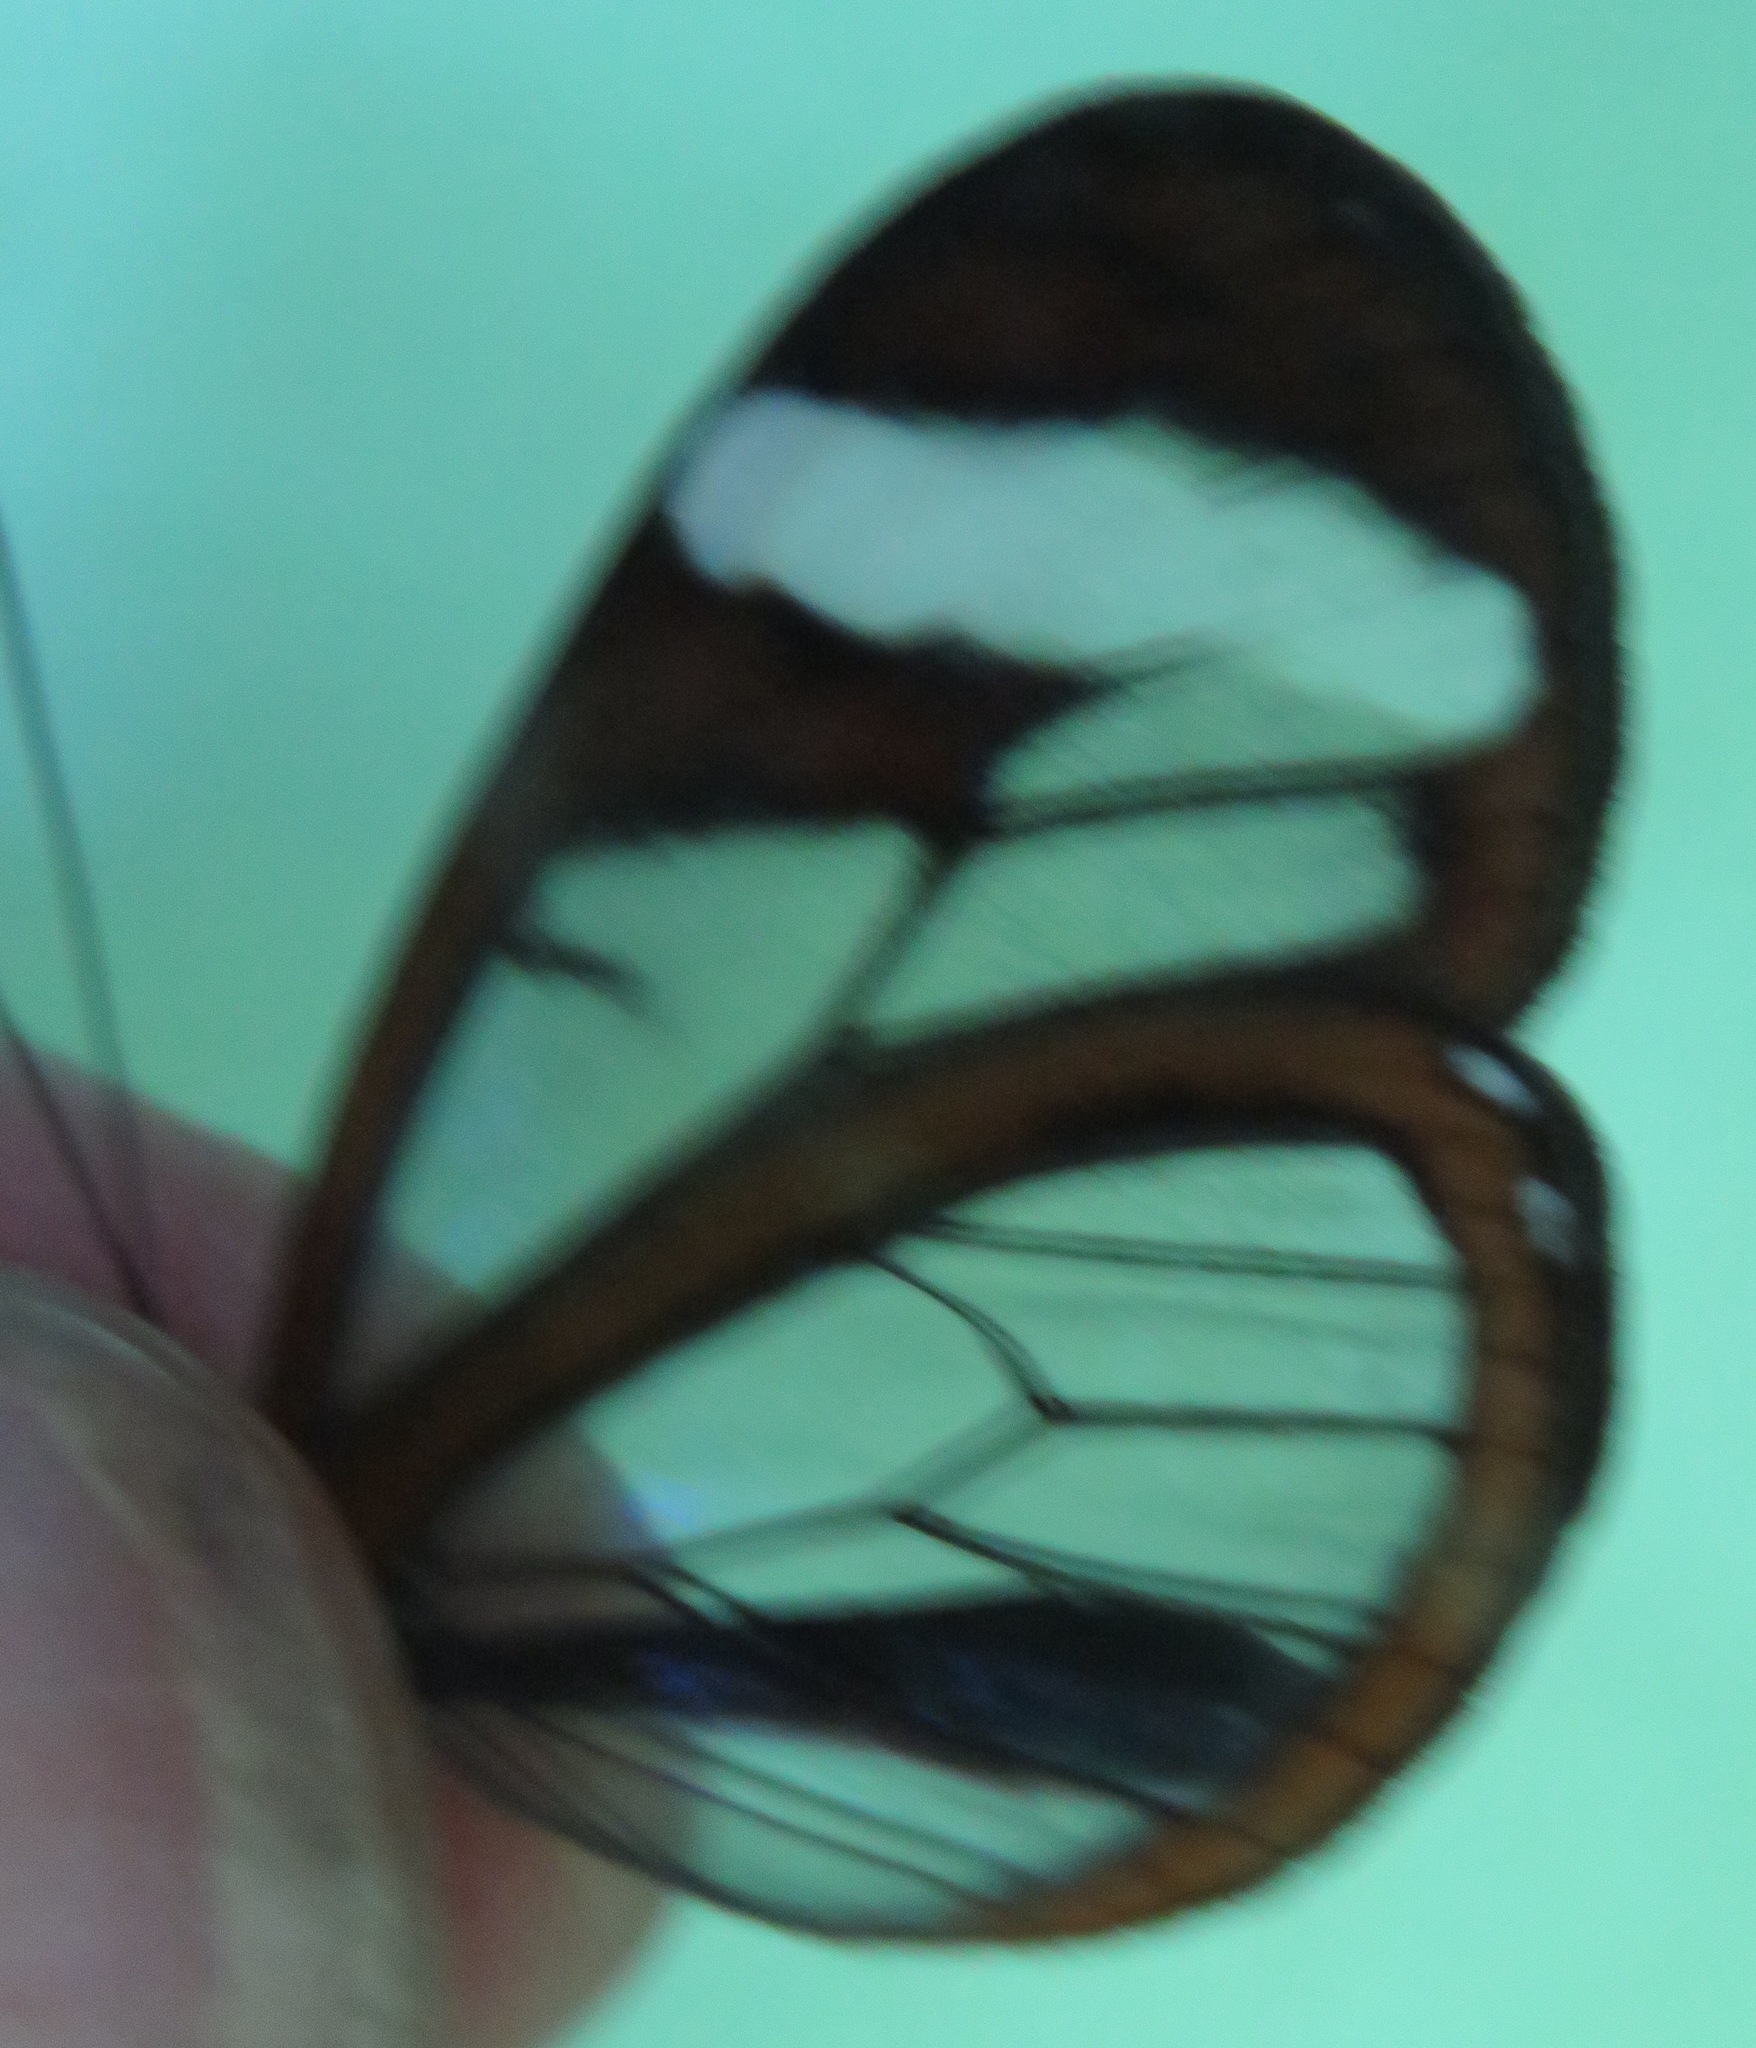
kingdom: Animalia
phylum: Arthropoda
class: Insecta
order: Lepidoptera
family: Nymphalidae
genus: Oleria
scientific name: Oleria paula
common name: Paula's clearwing
